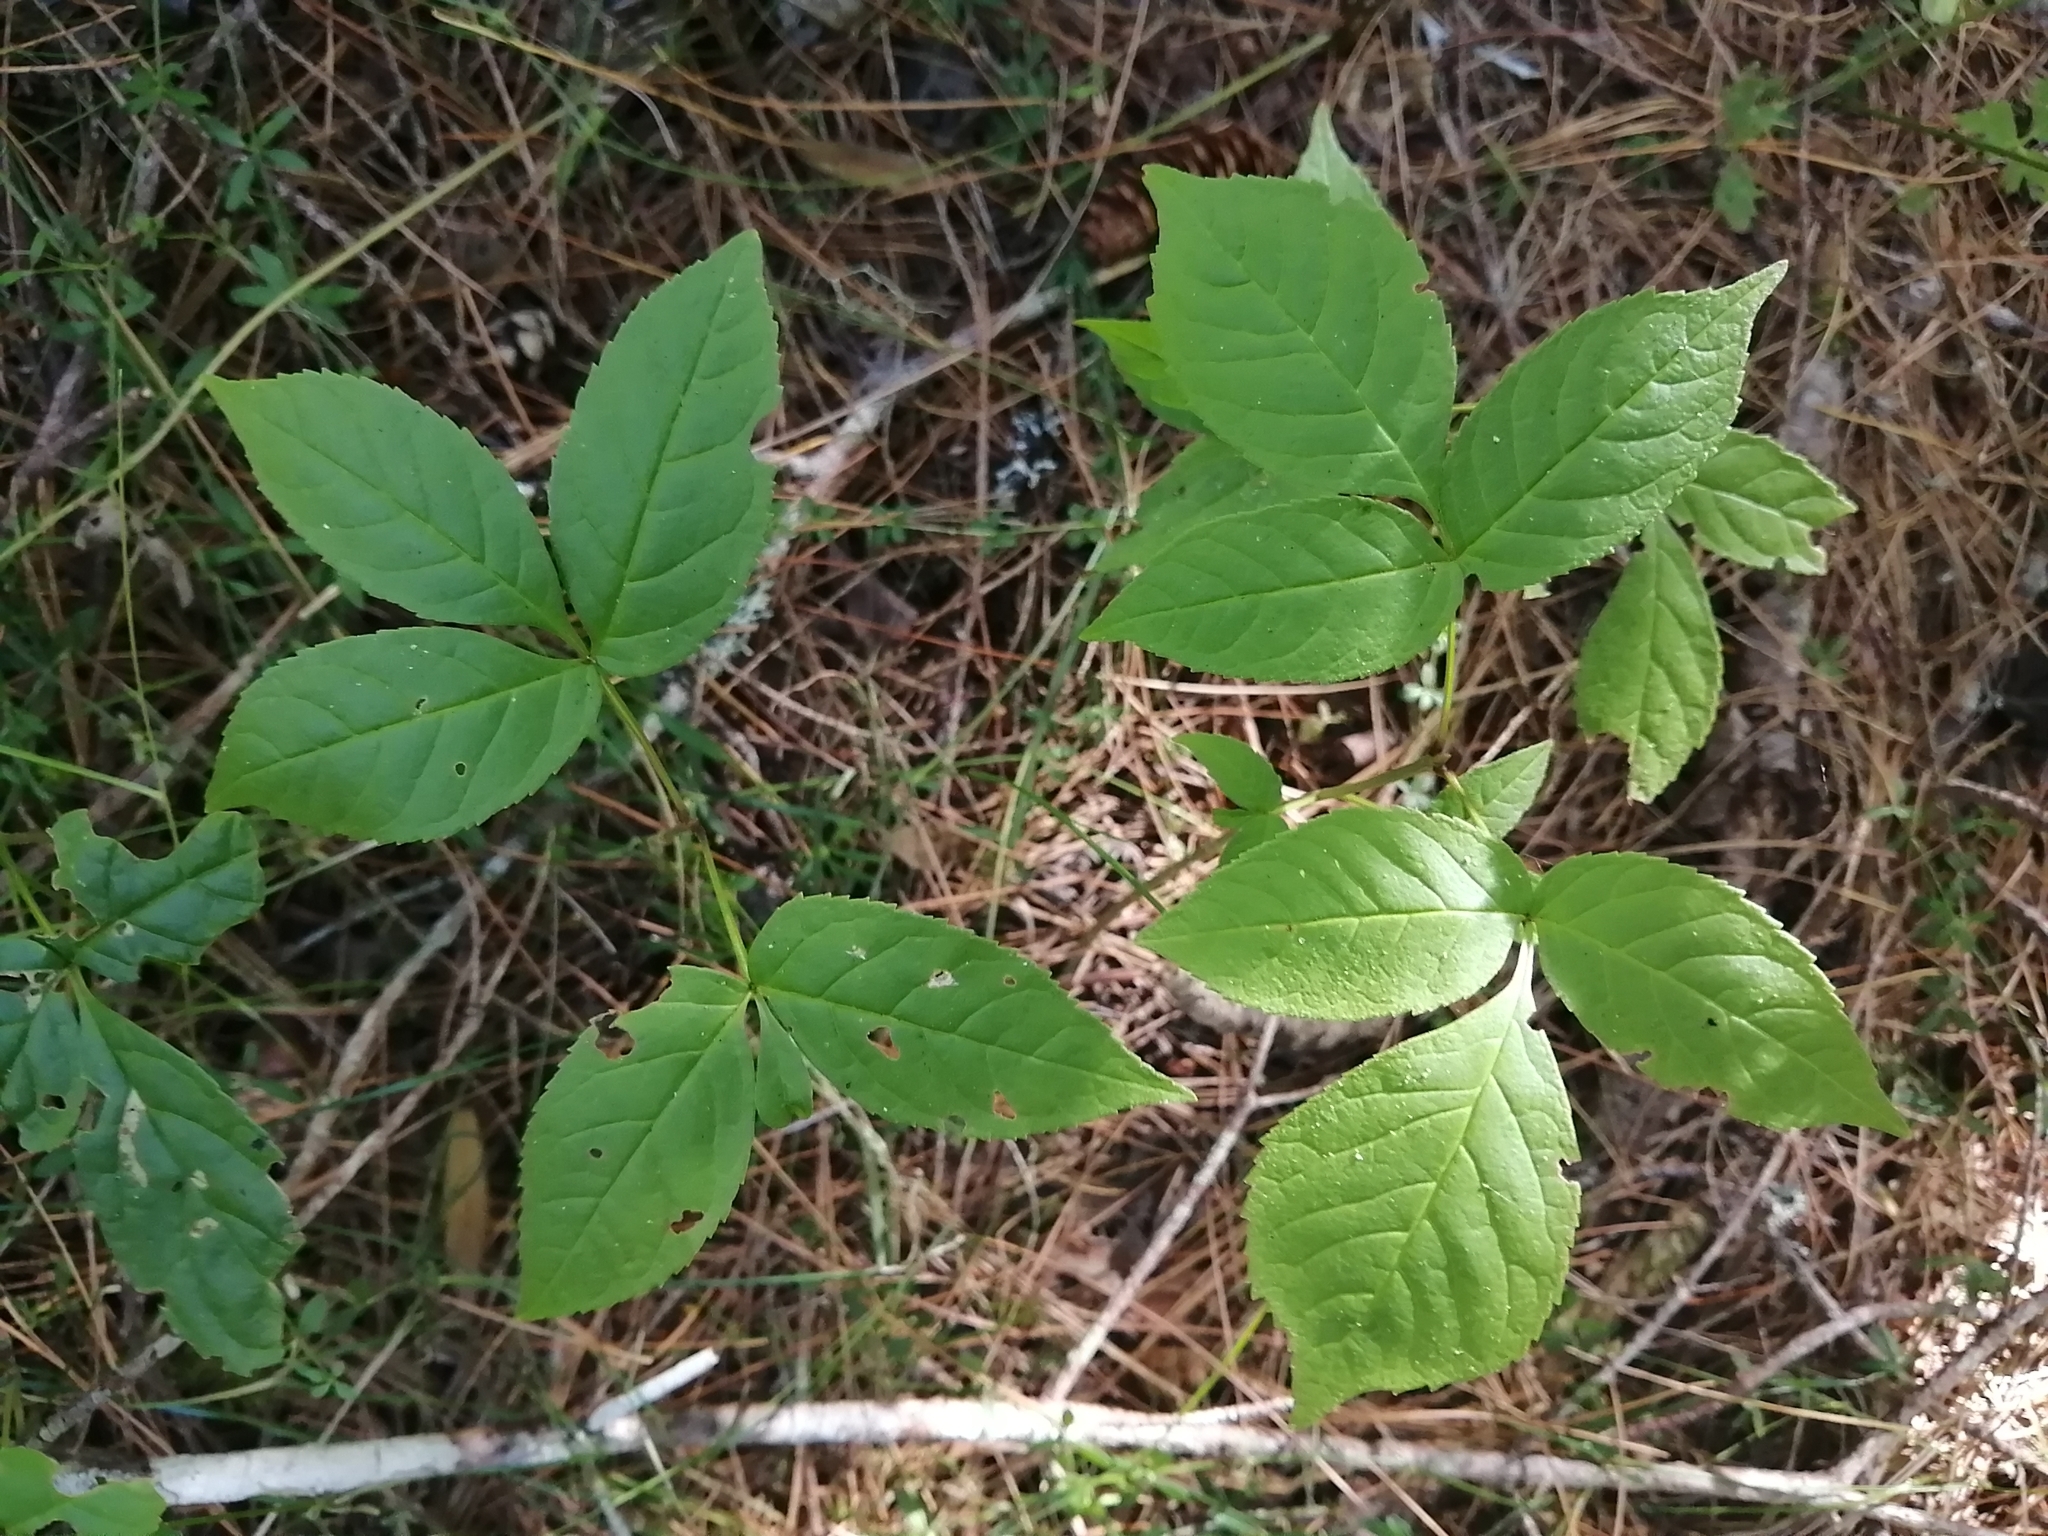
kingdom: Plantae
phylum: Tracheophyta
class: Magnoliopsida
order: Lamiales
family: Oleaceae
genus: Fraxinus
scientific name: Fraxinus nigra
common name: Black ash
